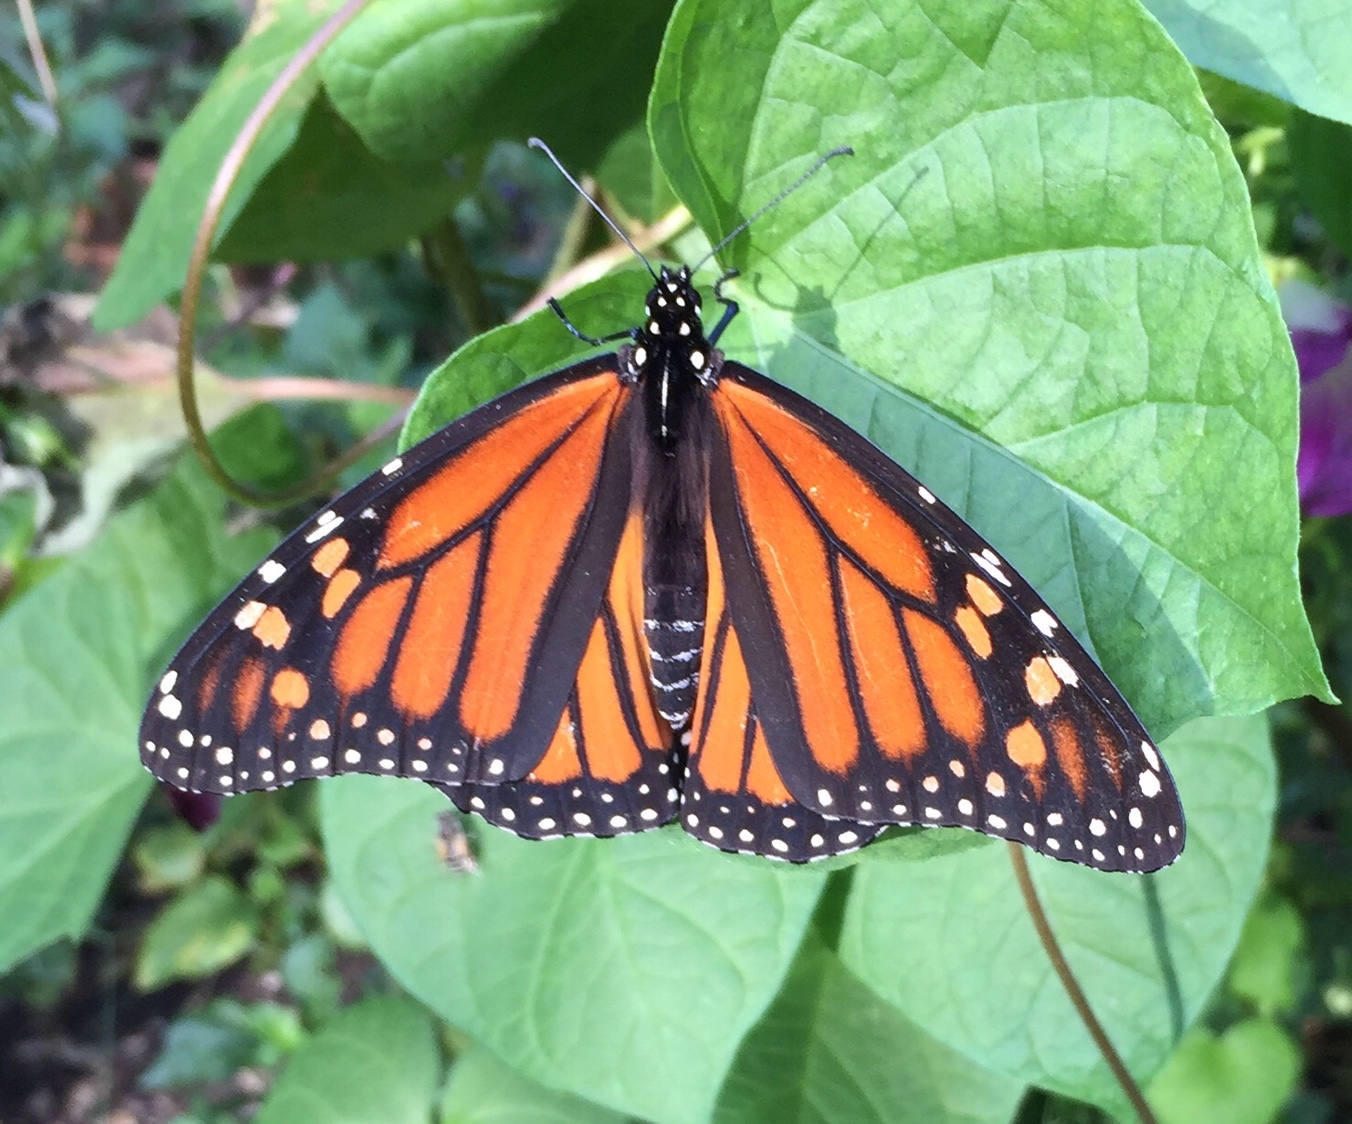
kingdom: Animalia
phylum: Arthropoda
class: Insecta
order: Lepidoptera
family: Nymphalidae
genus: Danaus
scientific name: Danaus plexippus
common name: Monarch
